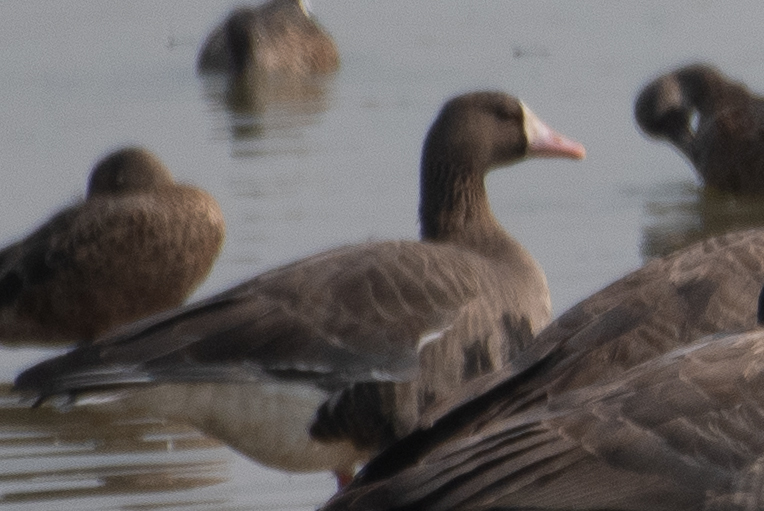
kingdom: Animalia
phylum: Chordata
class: Aves
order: Anseriformes
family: Anatidae
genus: Anser
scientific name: Anser albifrons
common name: Greater white-fronted goose
